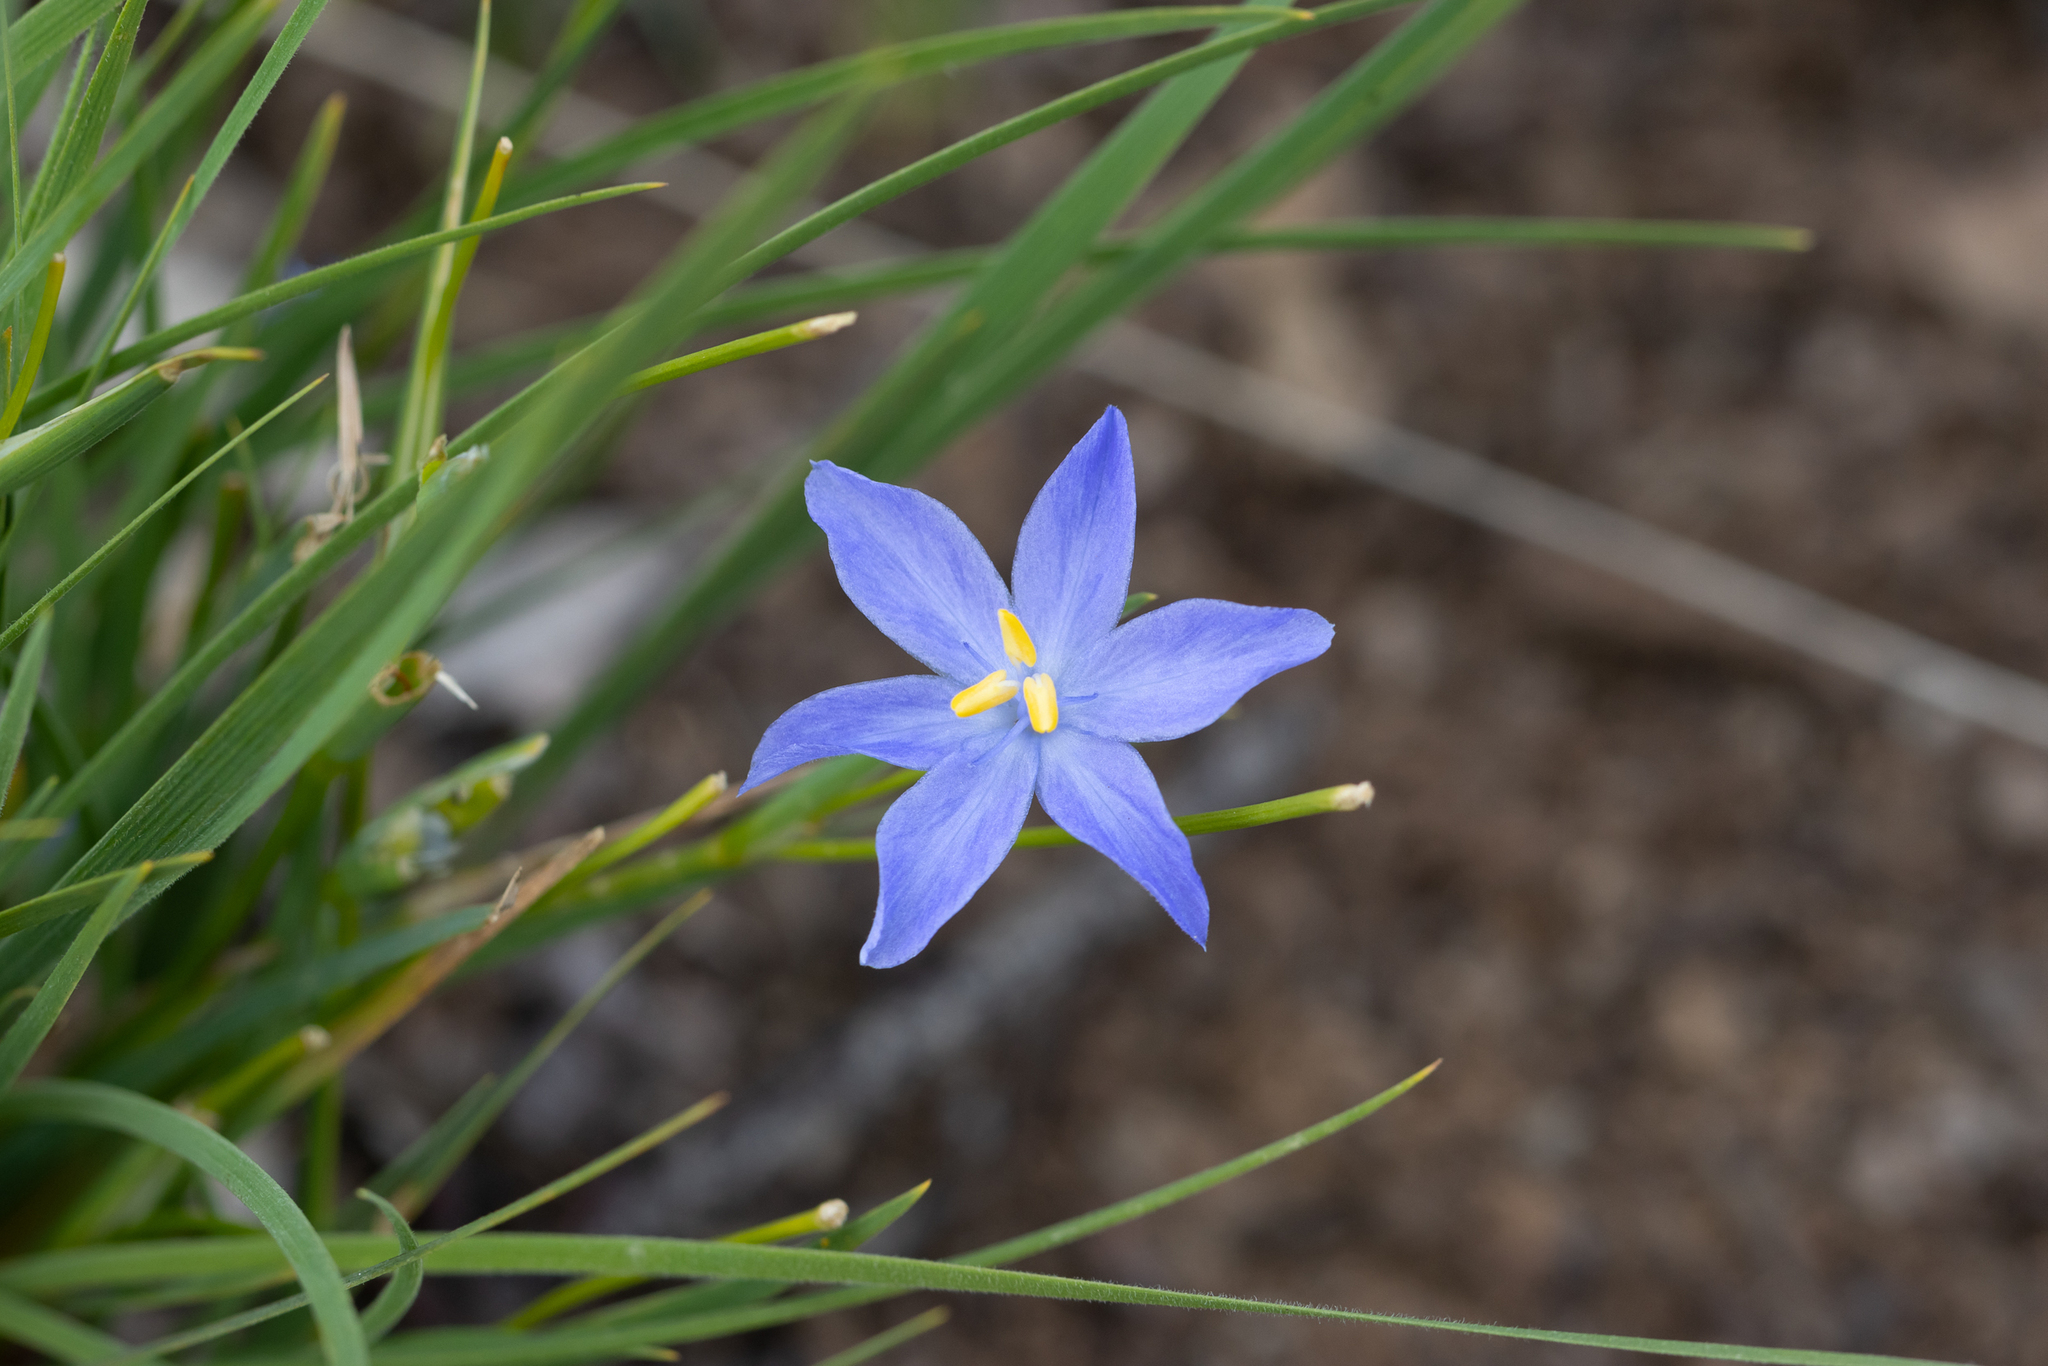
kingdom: Plantae
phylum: Tracheophyta
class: Liliopsida
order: Asparagales
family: Iridaceae
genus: Orthrosanthus
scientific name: Orthrosanthus laxus
